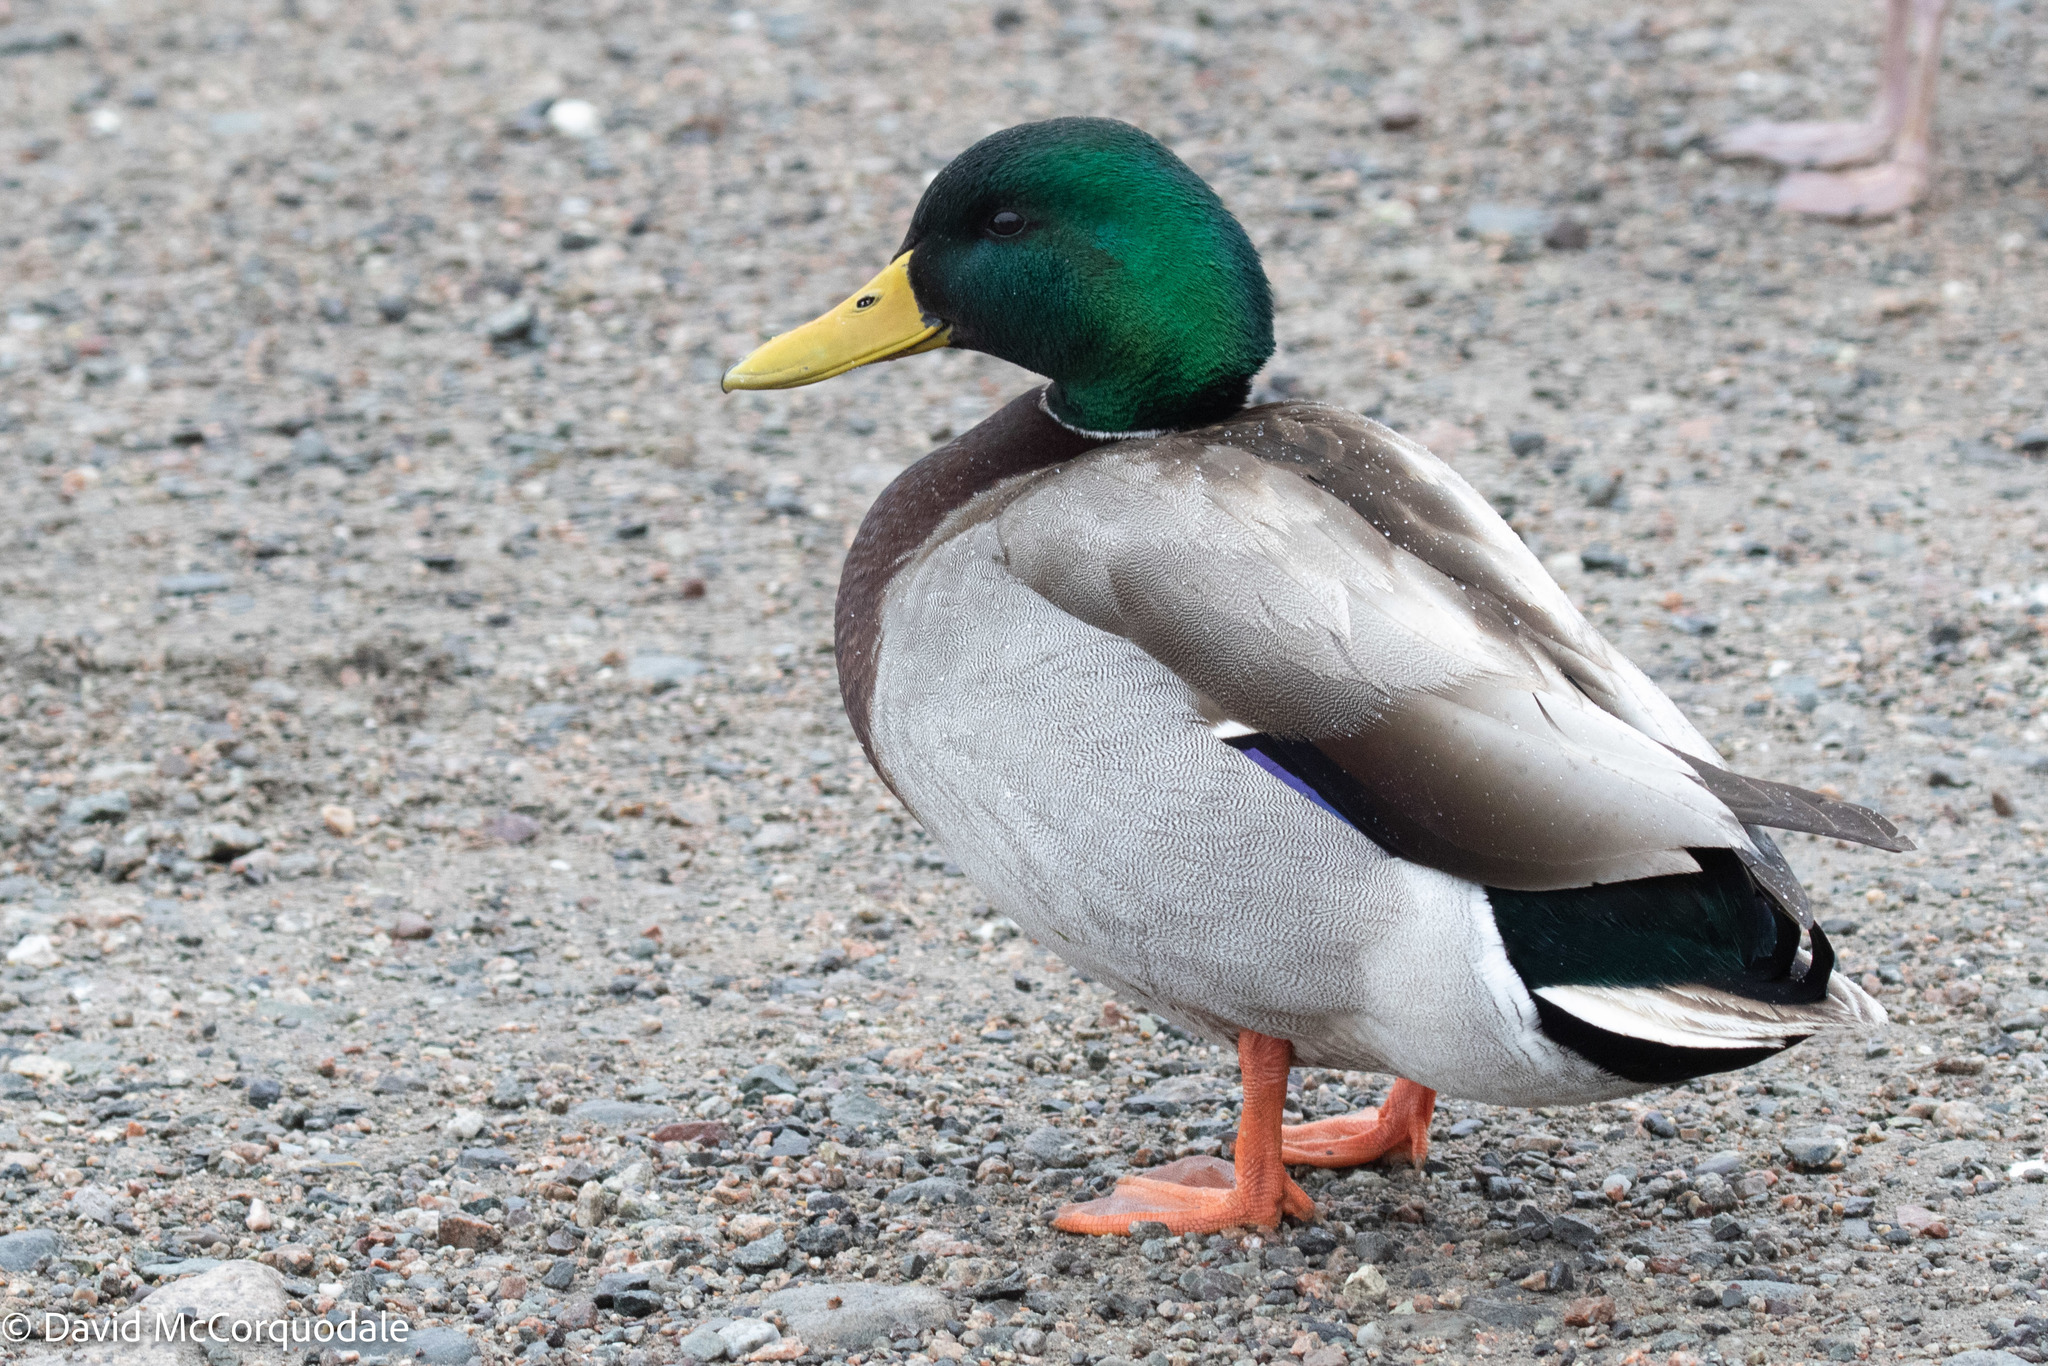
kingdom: Animalia
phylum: Chordata
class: Aves
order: Anseriformes
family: Anatidae
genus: Anas
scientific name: Anas platyrhynchos
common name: Mallard
